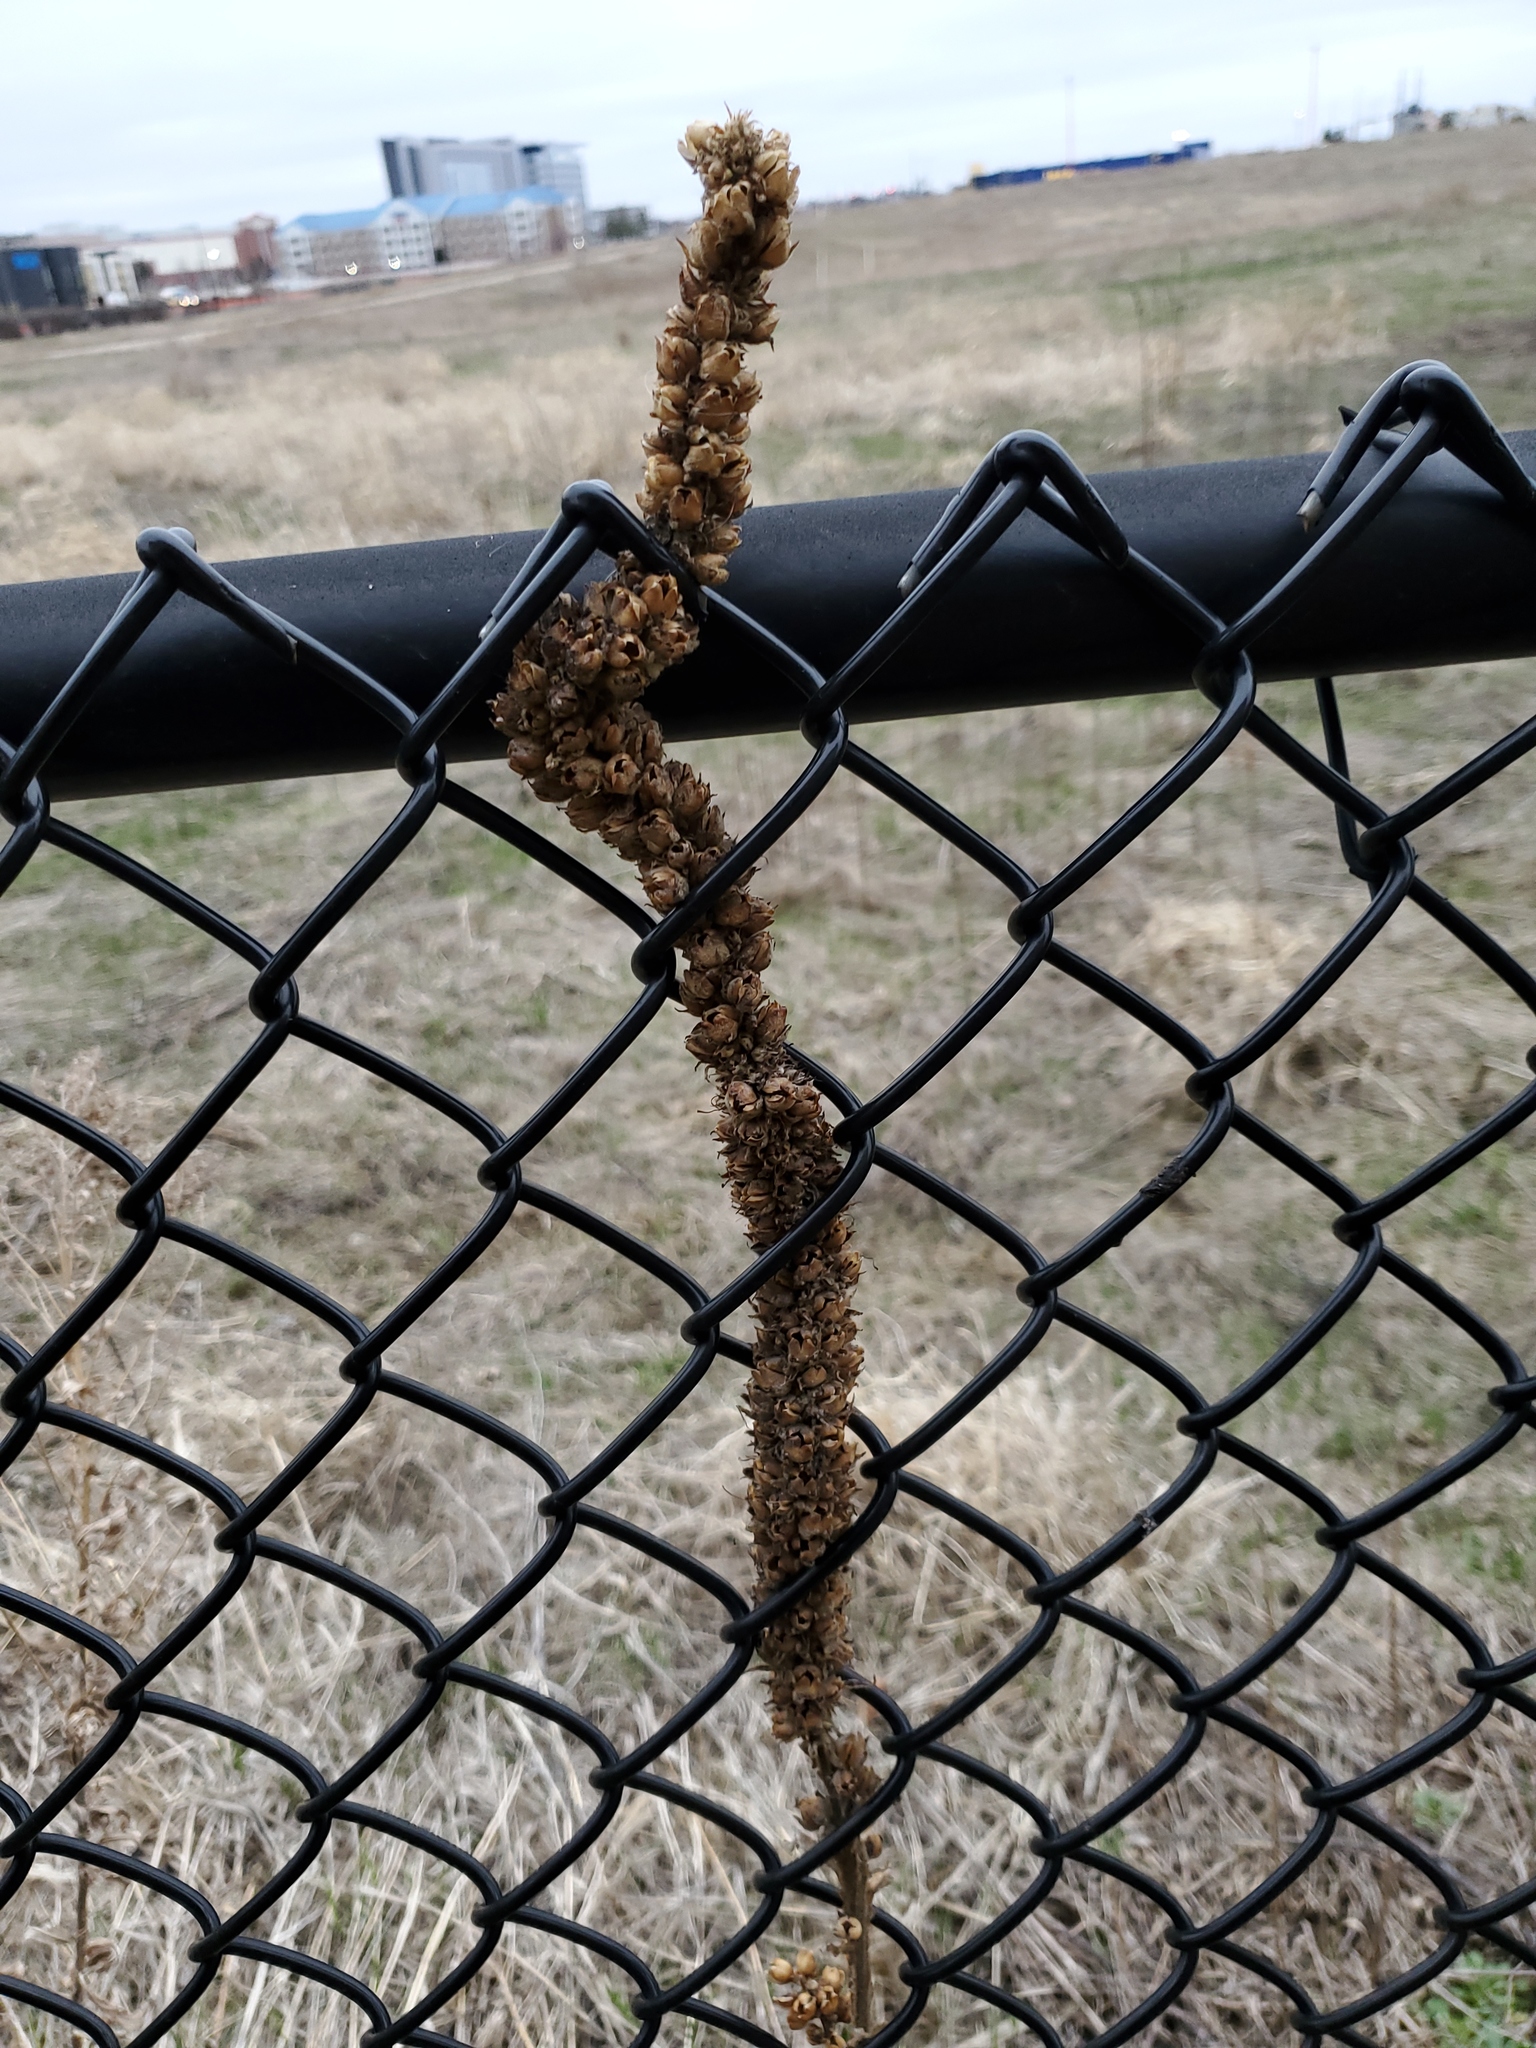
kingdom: Plantae
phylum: Tracheophyta
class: Magnoliopsida
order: Lamiales
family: Scrophulariaceae
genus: Verbascum
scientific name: Verbascum thapsus
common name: Common mullein
